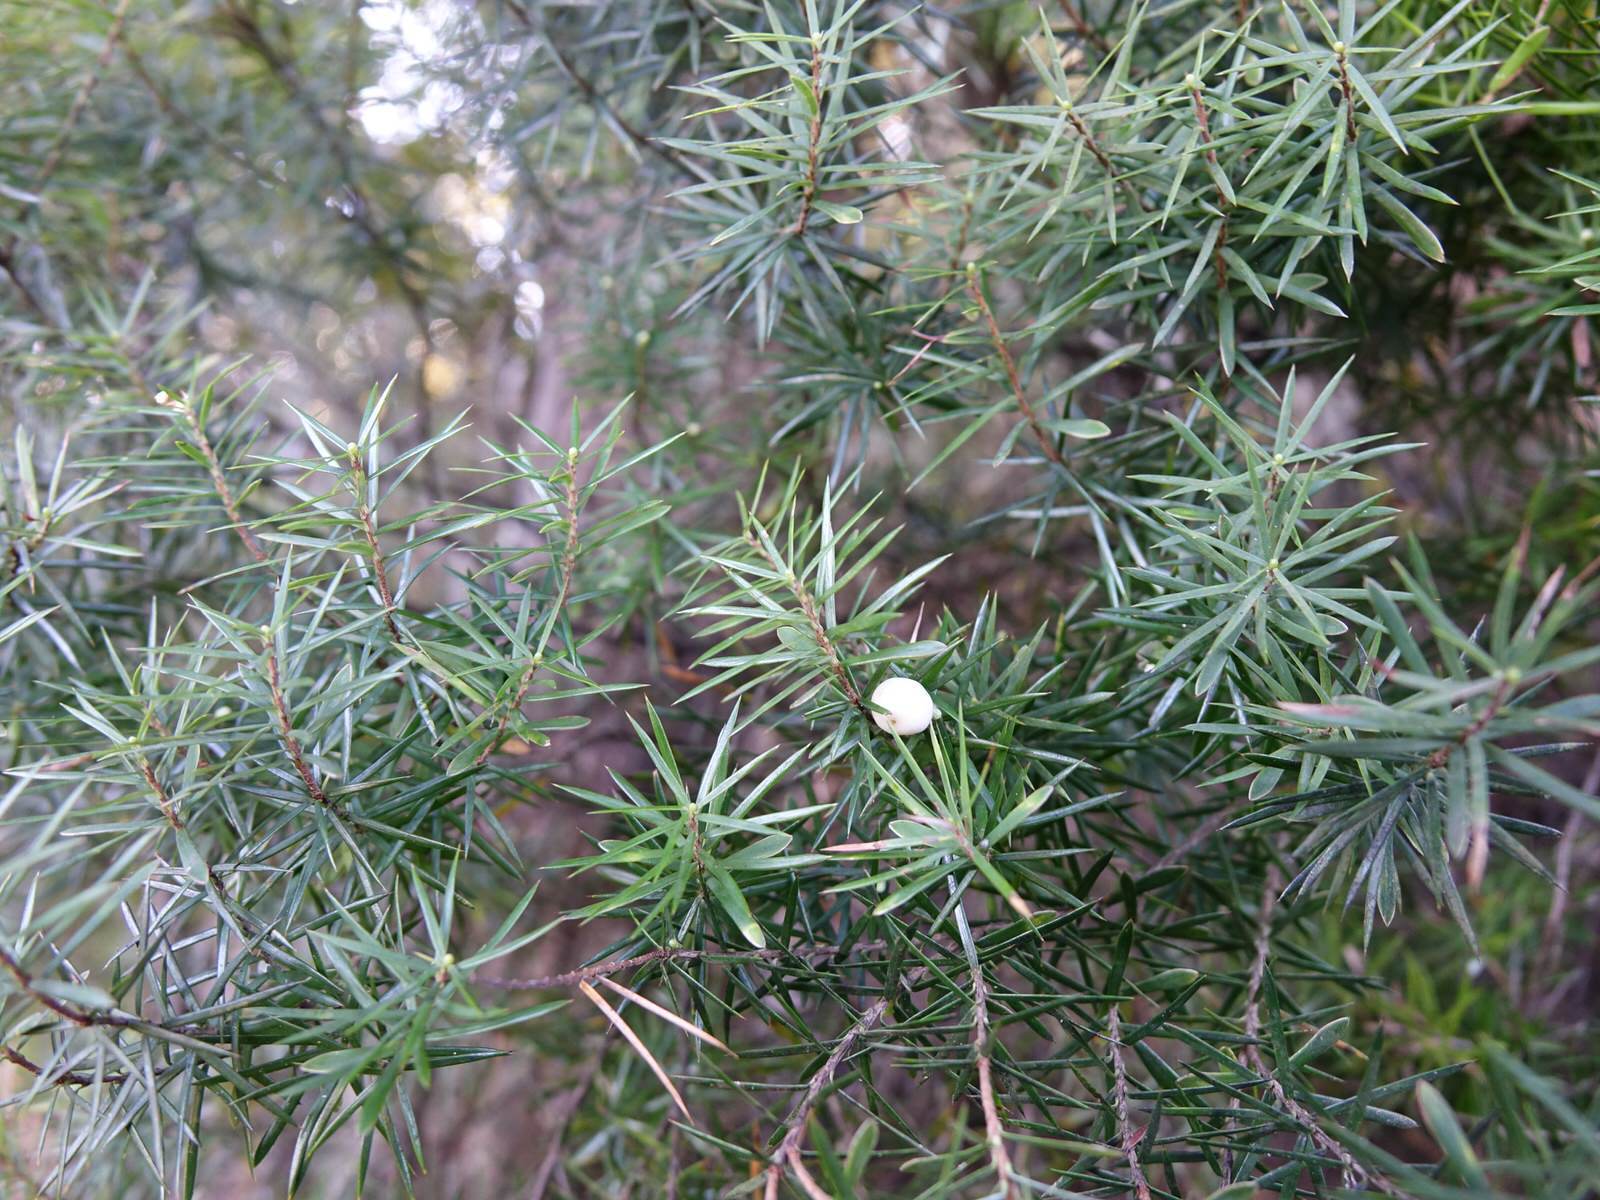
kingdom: Plantae
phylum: Tracheophyta
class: Magnoliopsida
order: Ericales
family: Ericaceae
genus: Leptecophylla
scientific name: Leptecophylla juniperina
